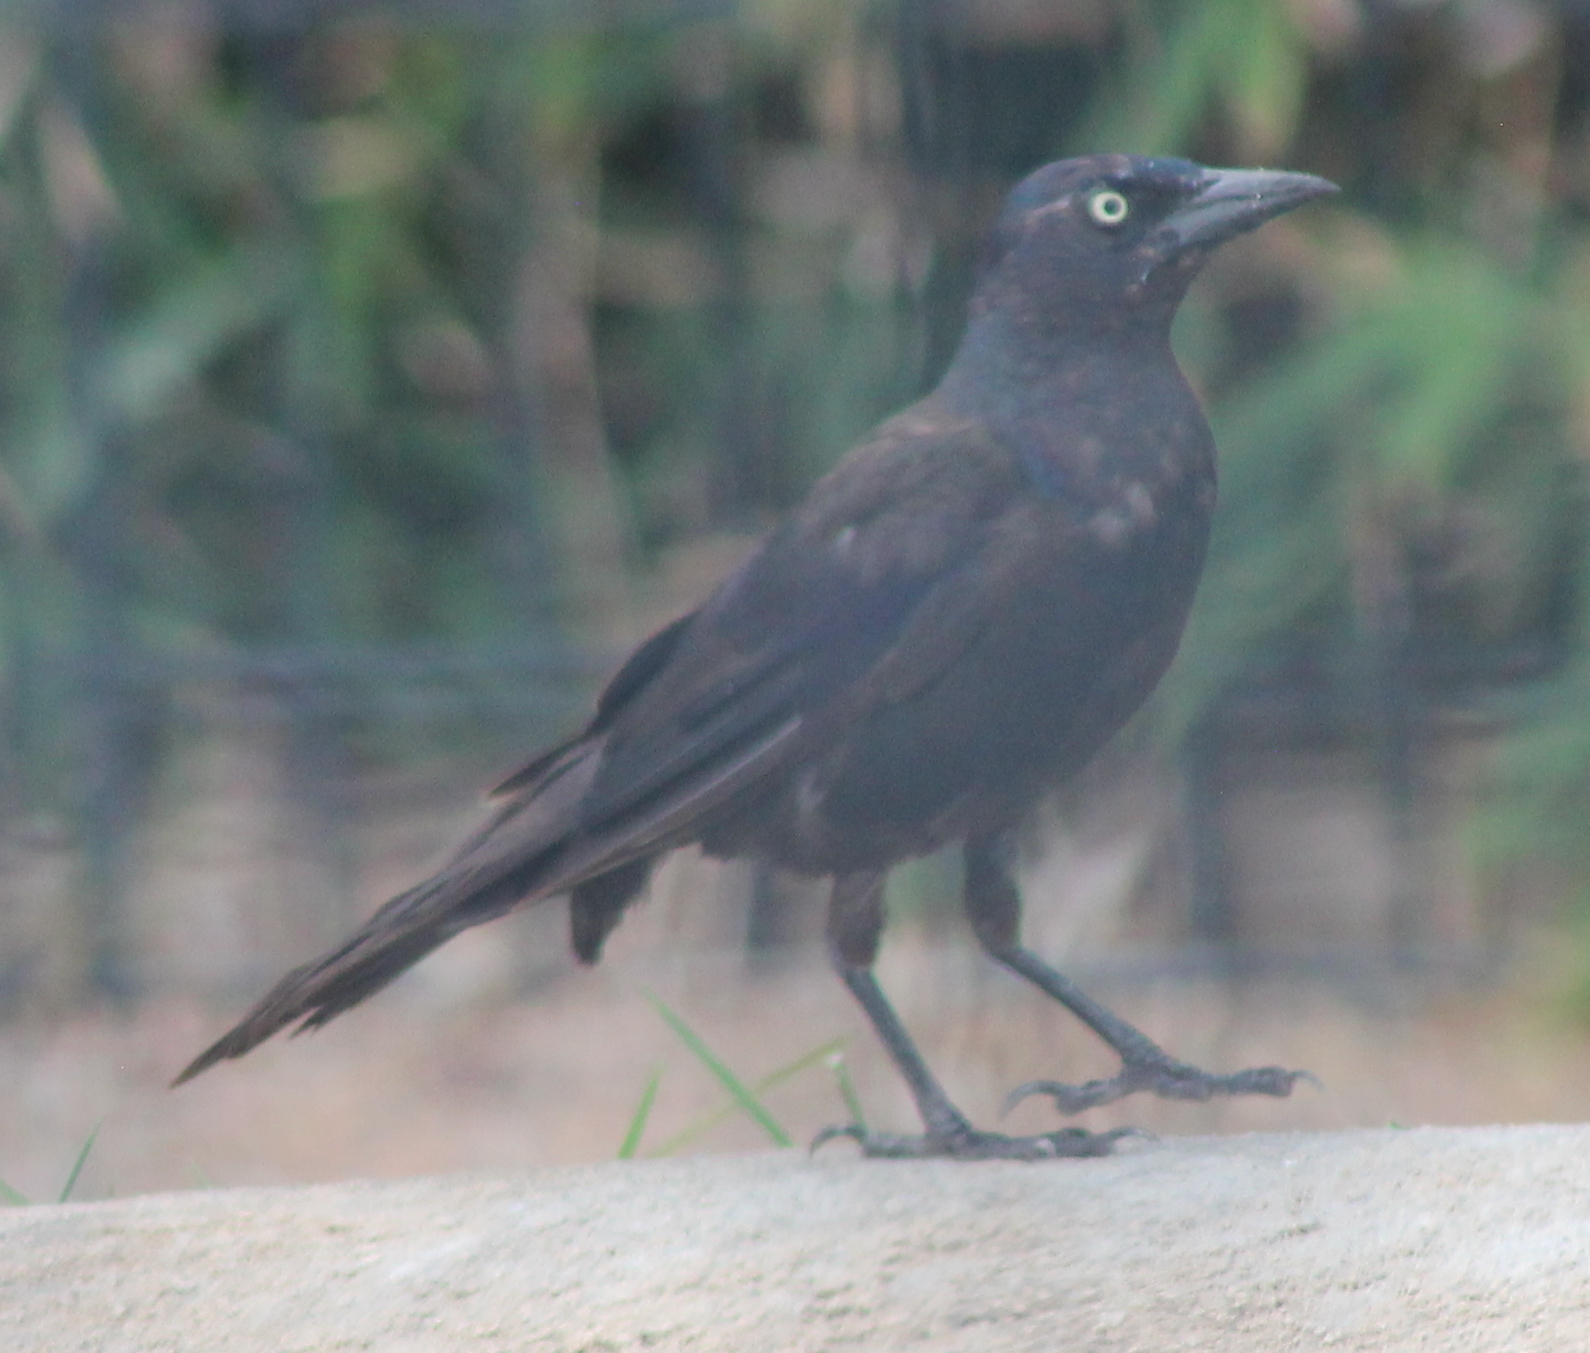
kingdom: Animalia
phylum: Chordata
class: Aves
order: Passeriformes
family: Icteridae
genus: Quiscalus
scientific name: Quiscalus quiscula
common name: Common grackle
